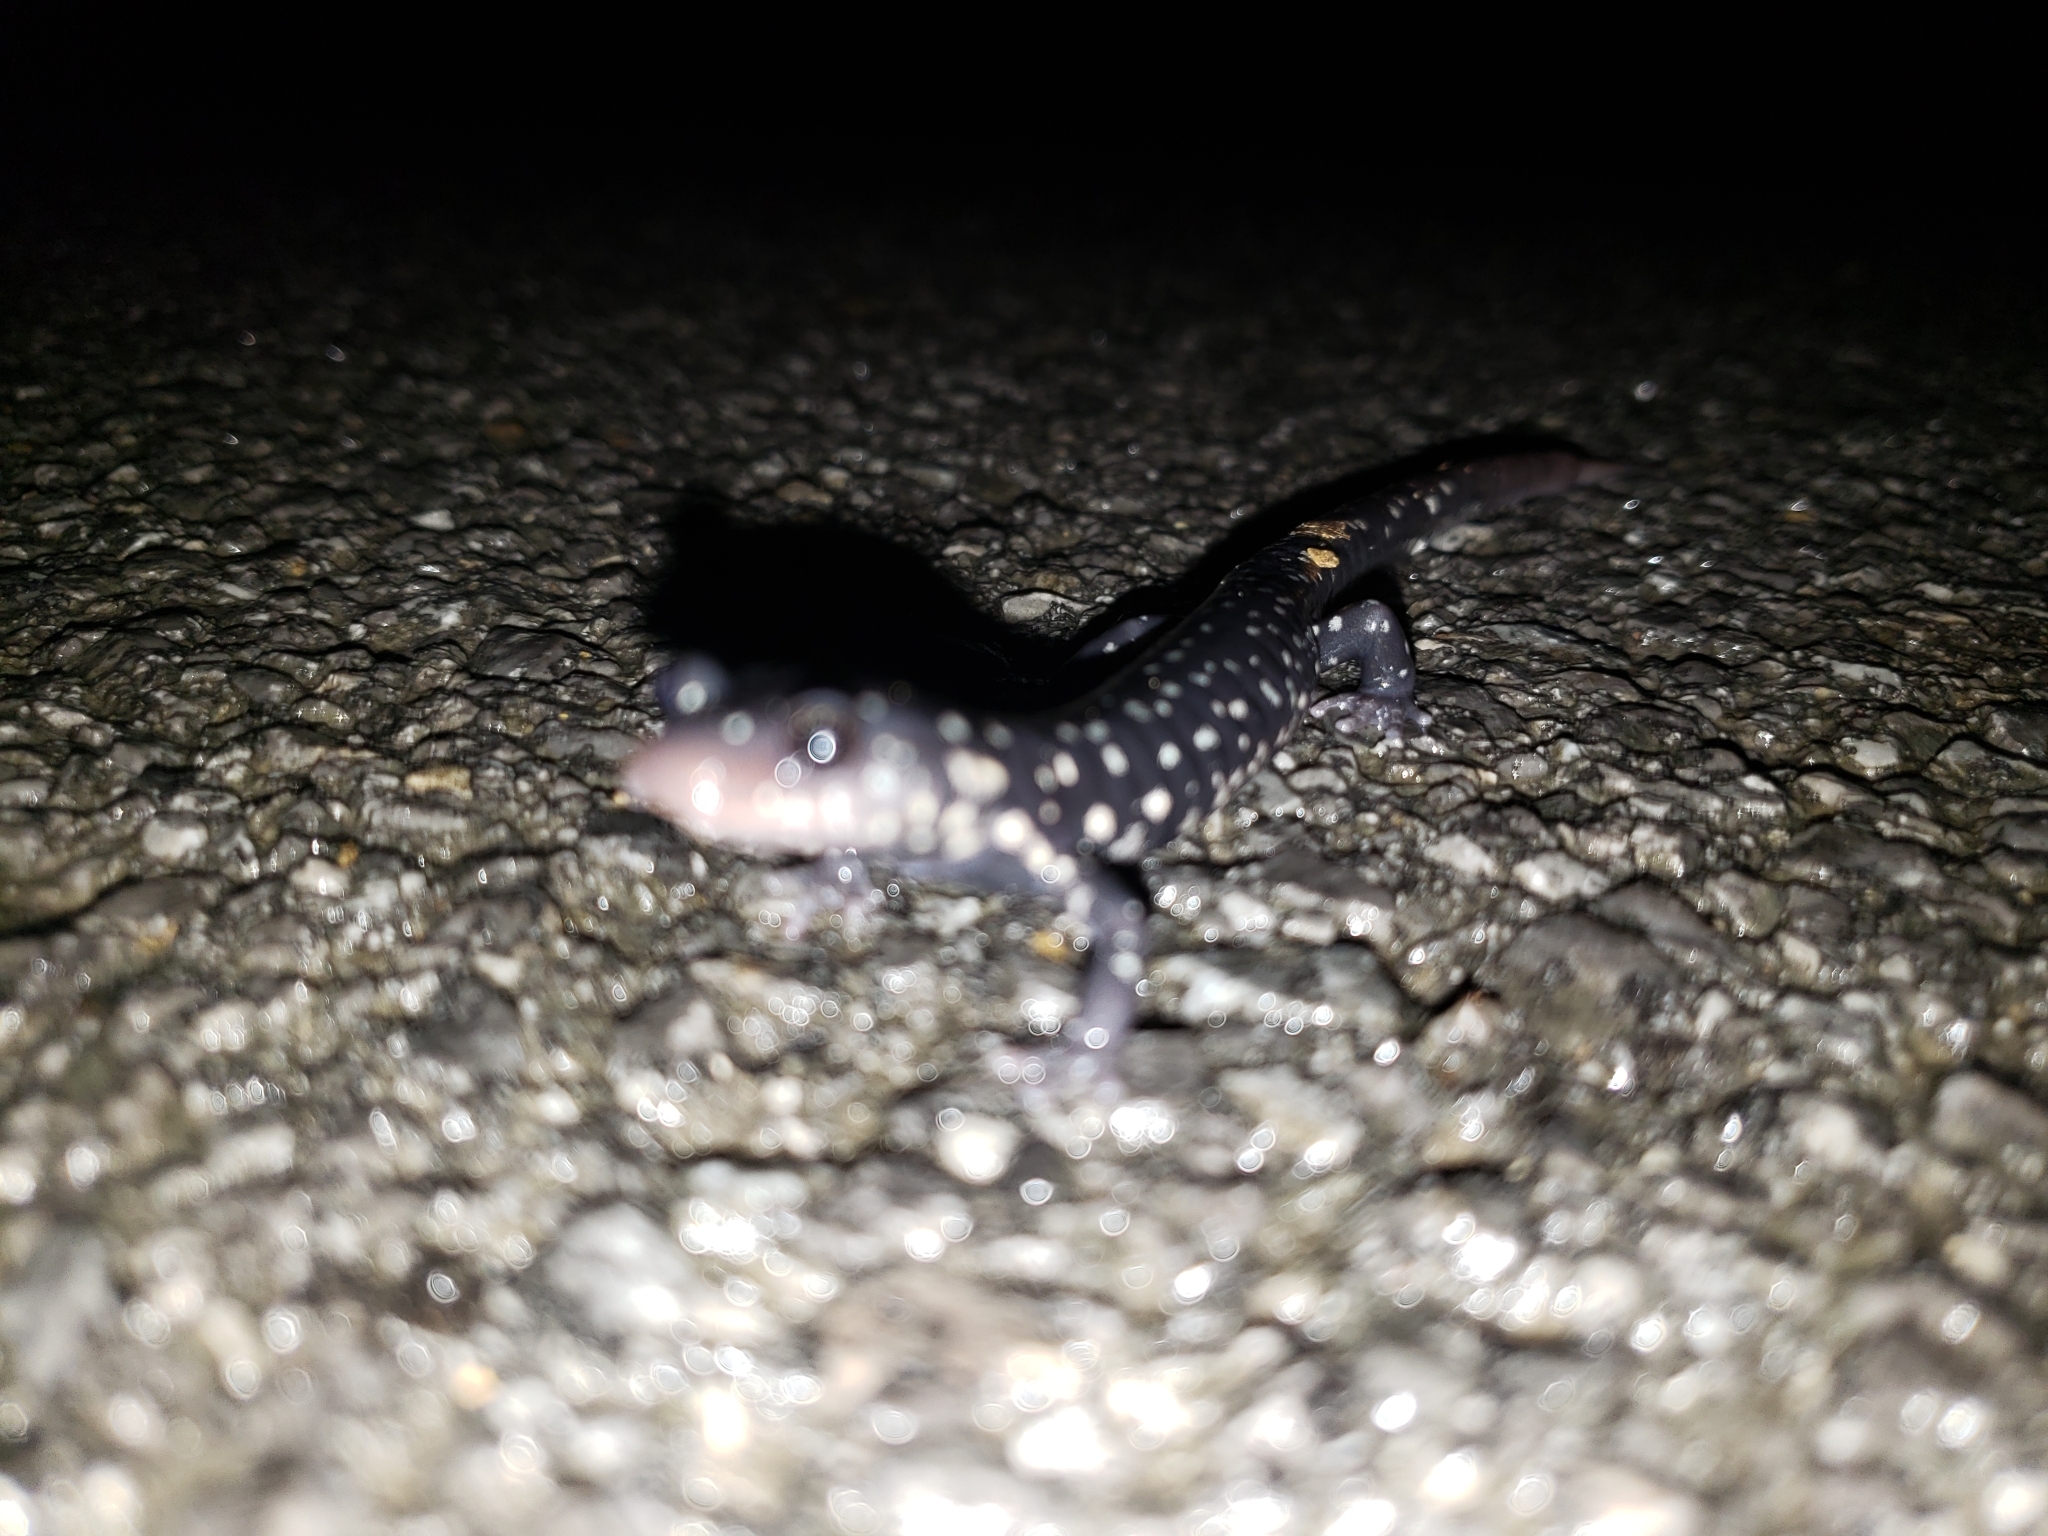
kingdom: Animalia
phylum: Chordata
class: Amphibia
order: Caudata
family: Plethodontidae
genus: Plethodon
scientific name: Plethodon glutinosus
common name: Northern slimy salamander
